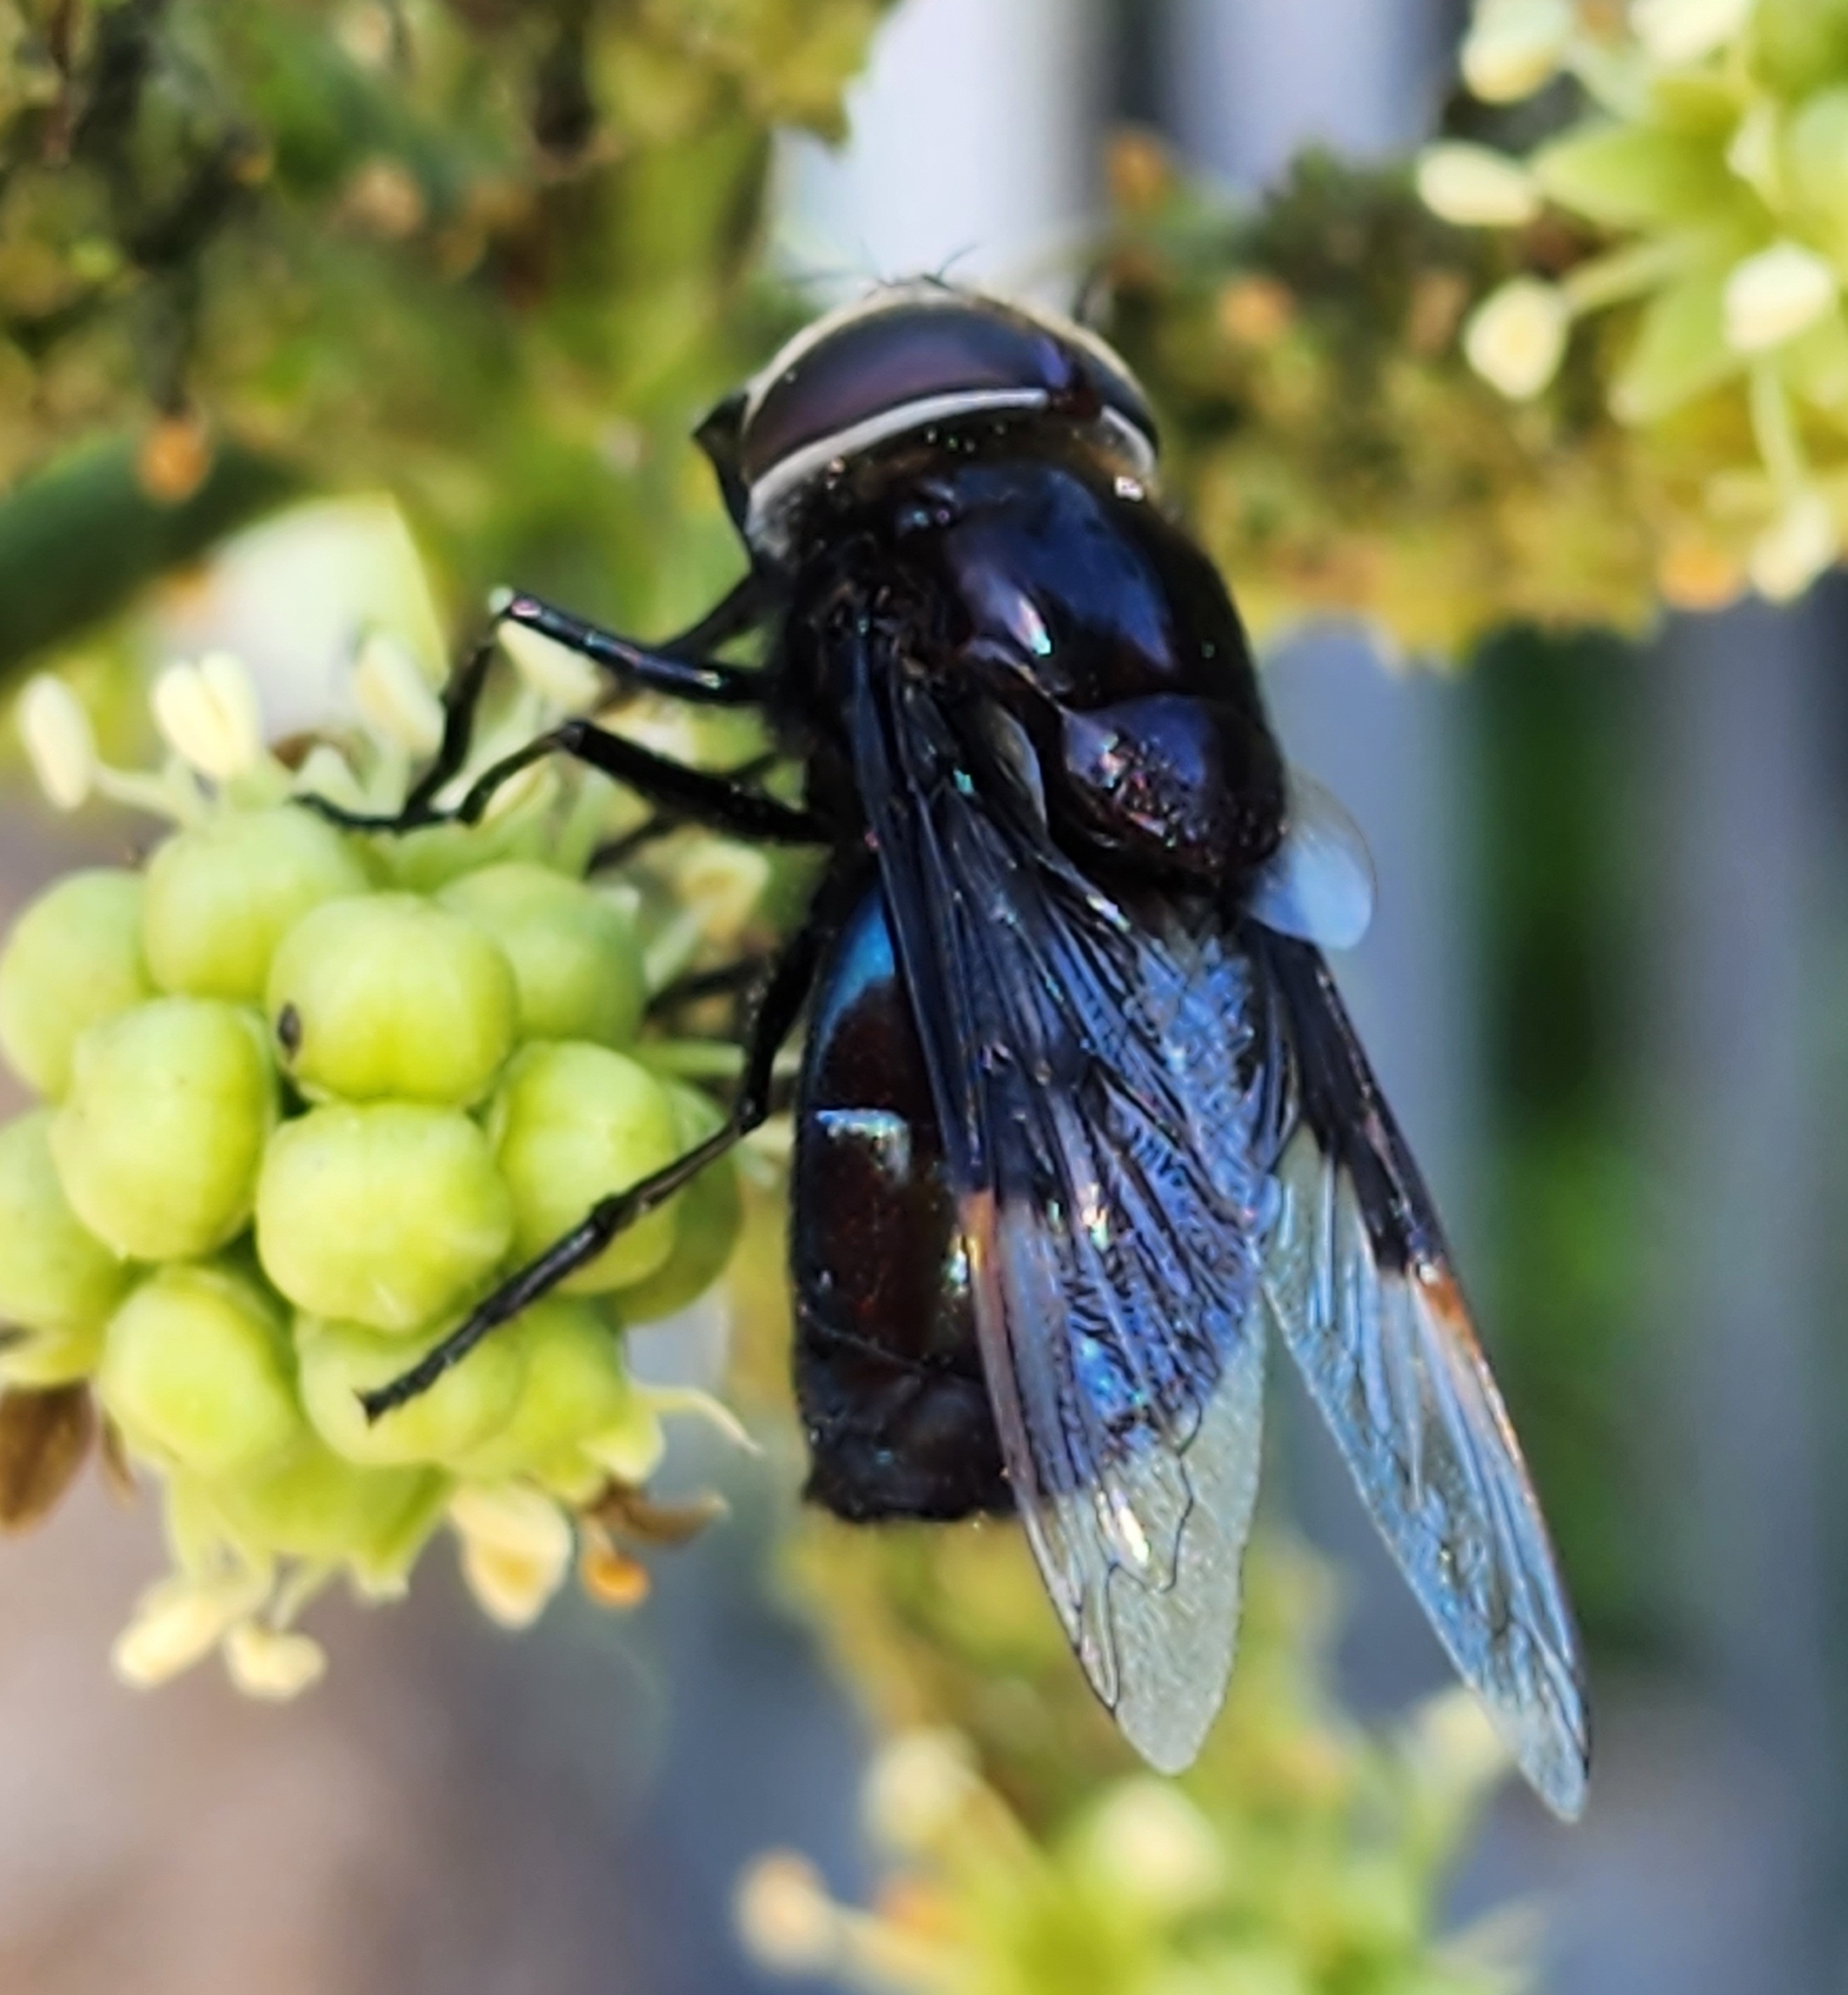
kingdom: Animalia
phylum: Arthropoda
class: Insecta
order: Diptera
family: Syrphidae
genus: Copestylum
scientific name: Copestylum violaceum
